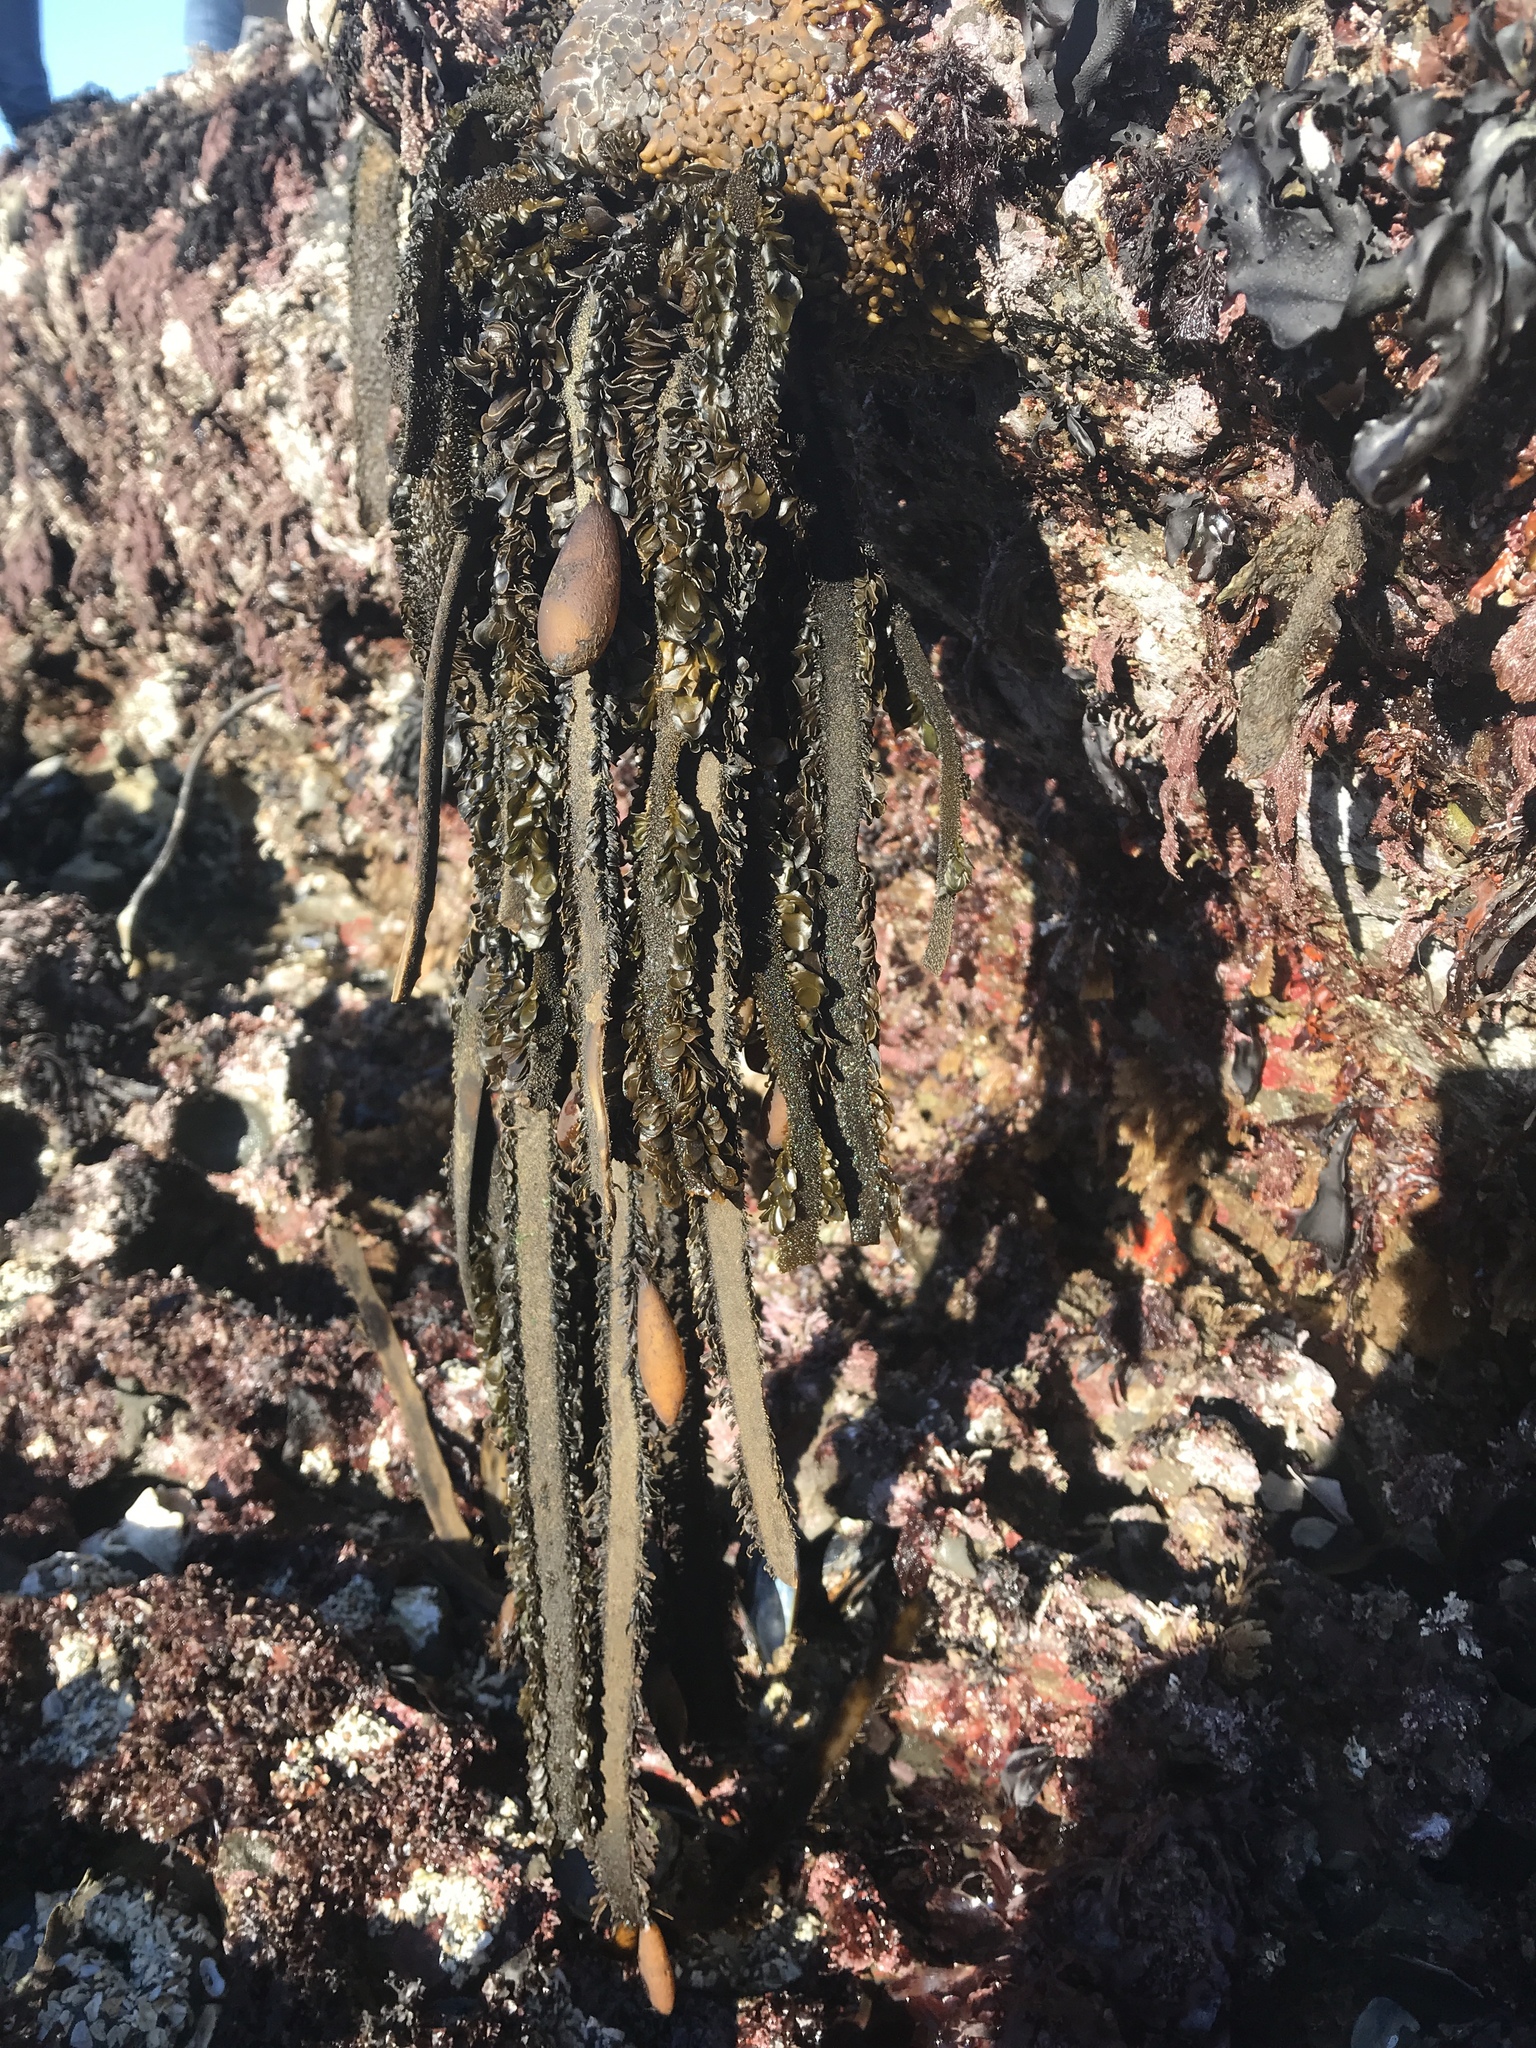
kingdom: Chromista
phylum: Ochrophyta
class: Phaeophyceae
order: Laminariales
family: Lessoniaceae
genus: Egregia
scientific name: Egregia menziesii
